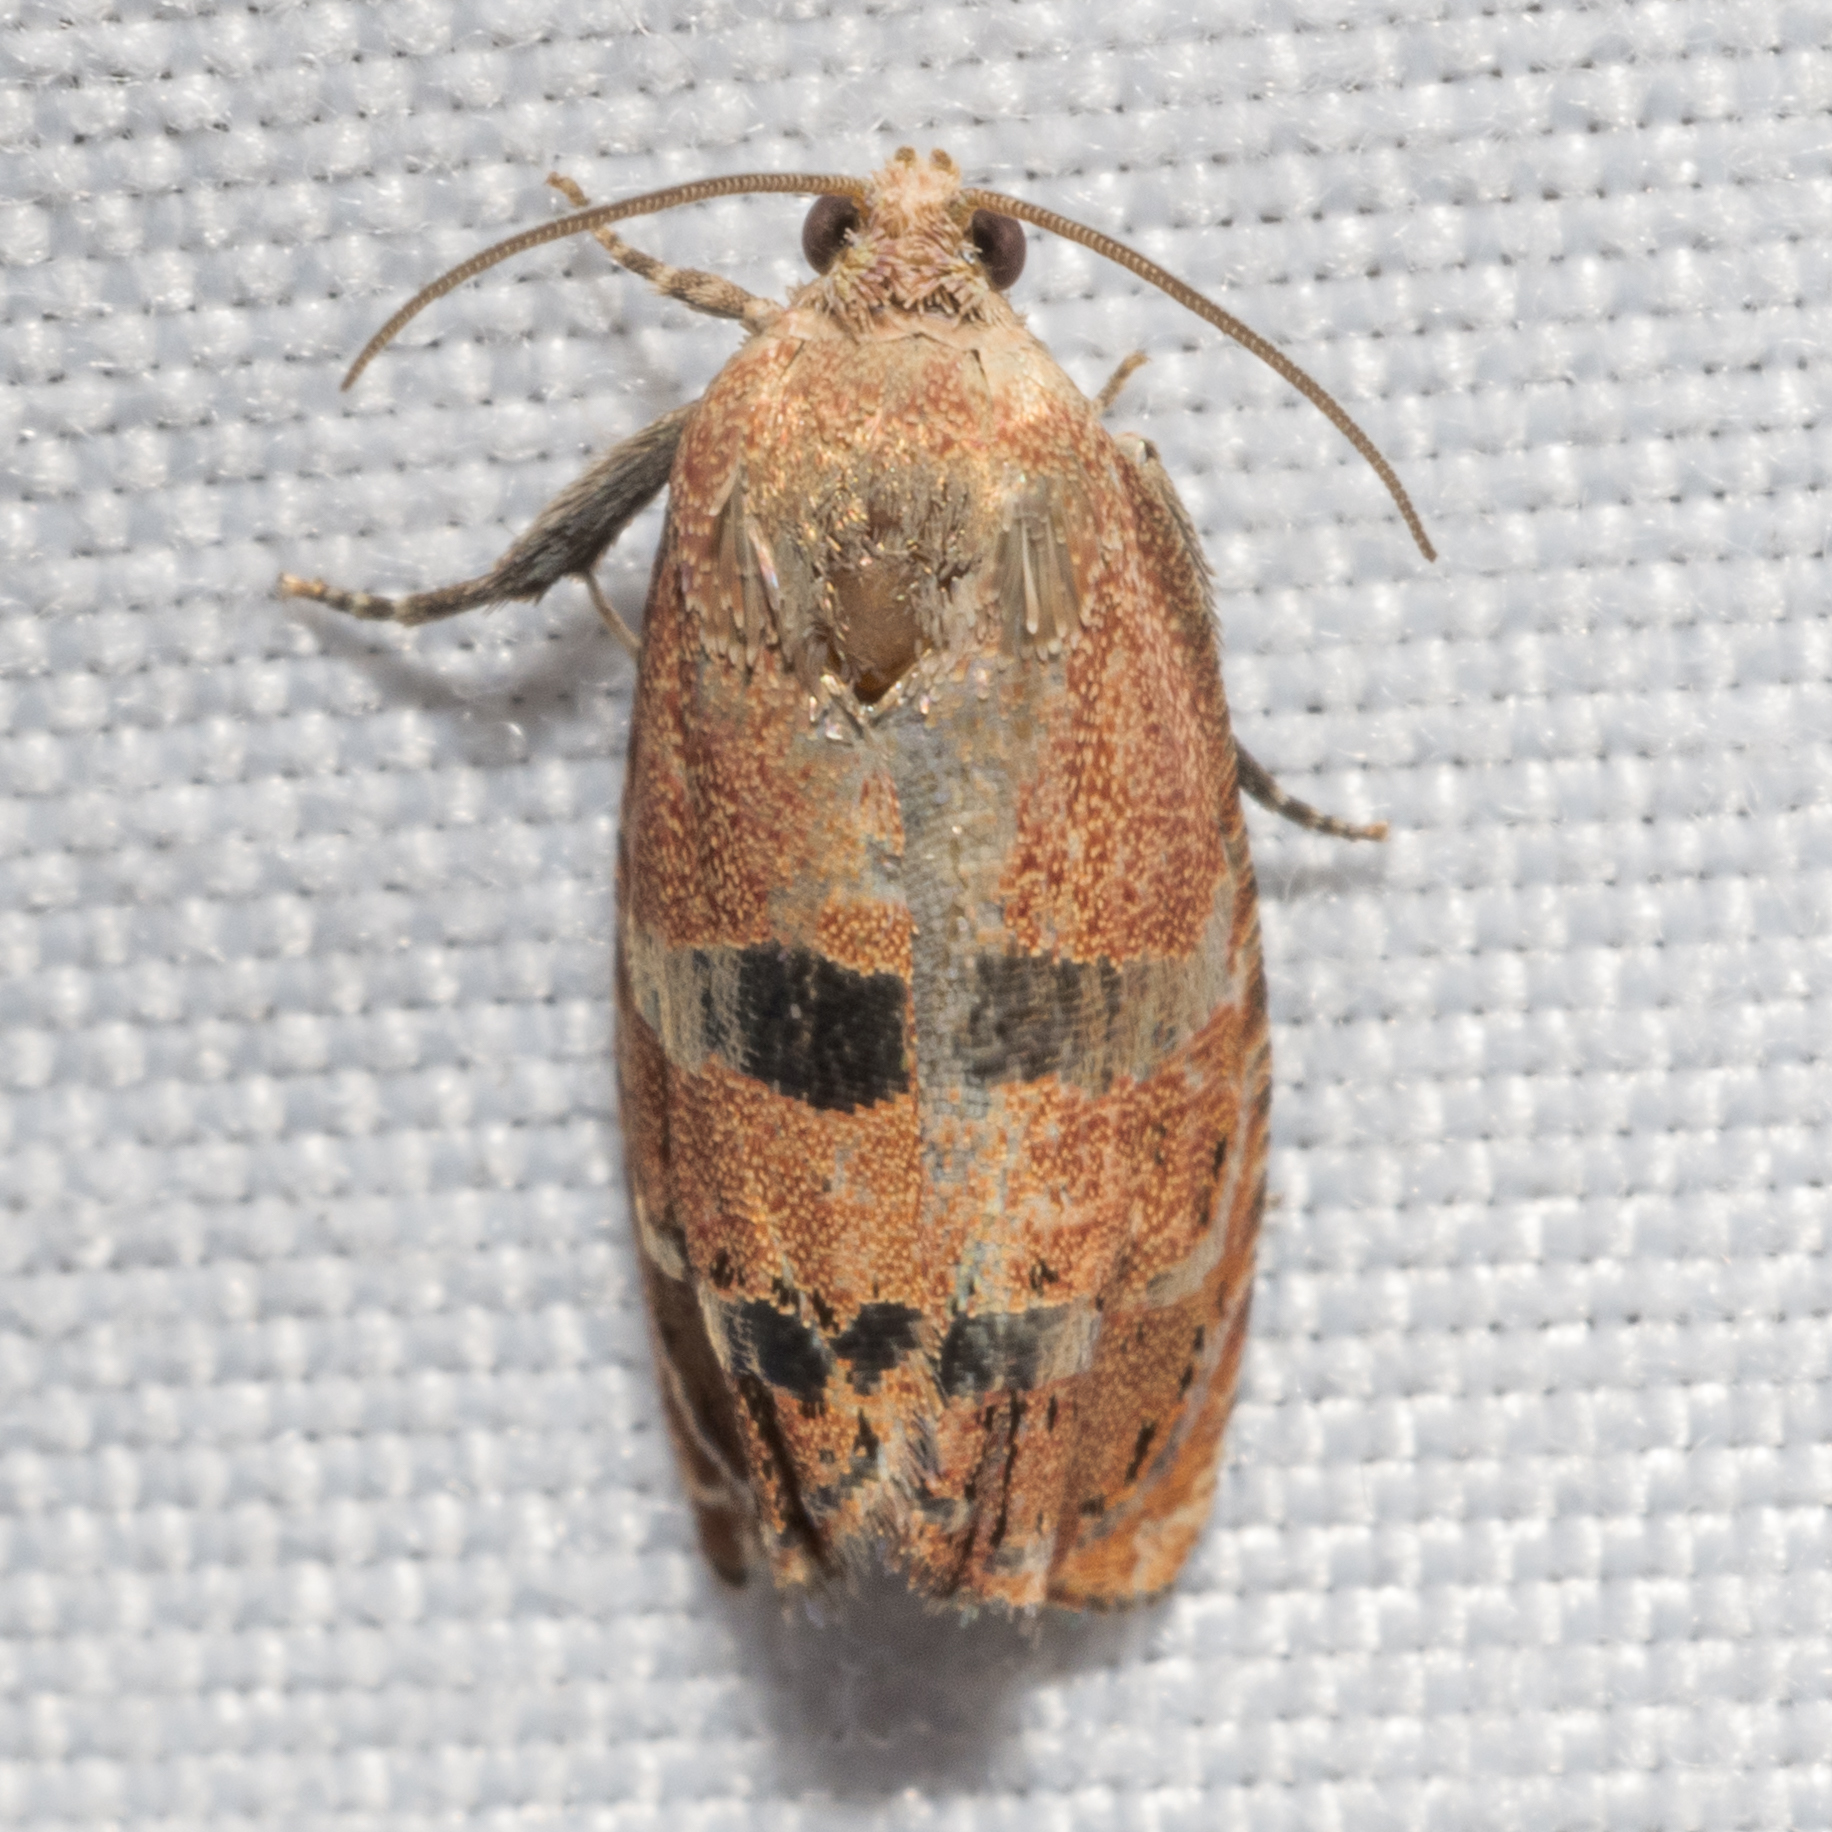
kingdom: Animalia
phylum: Arthropoda
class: Insecta
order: Lepidoptera
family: Tortricidae
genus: Cydia
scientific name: Cydia latiferreana
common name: Filbertworm moth
